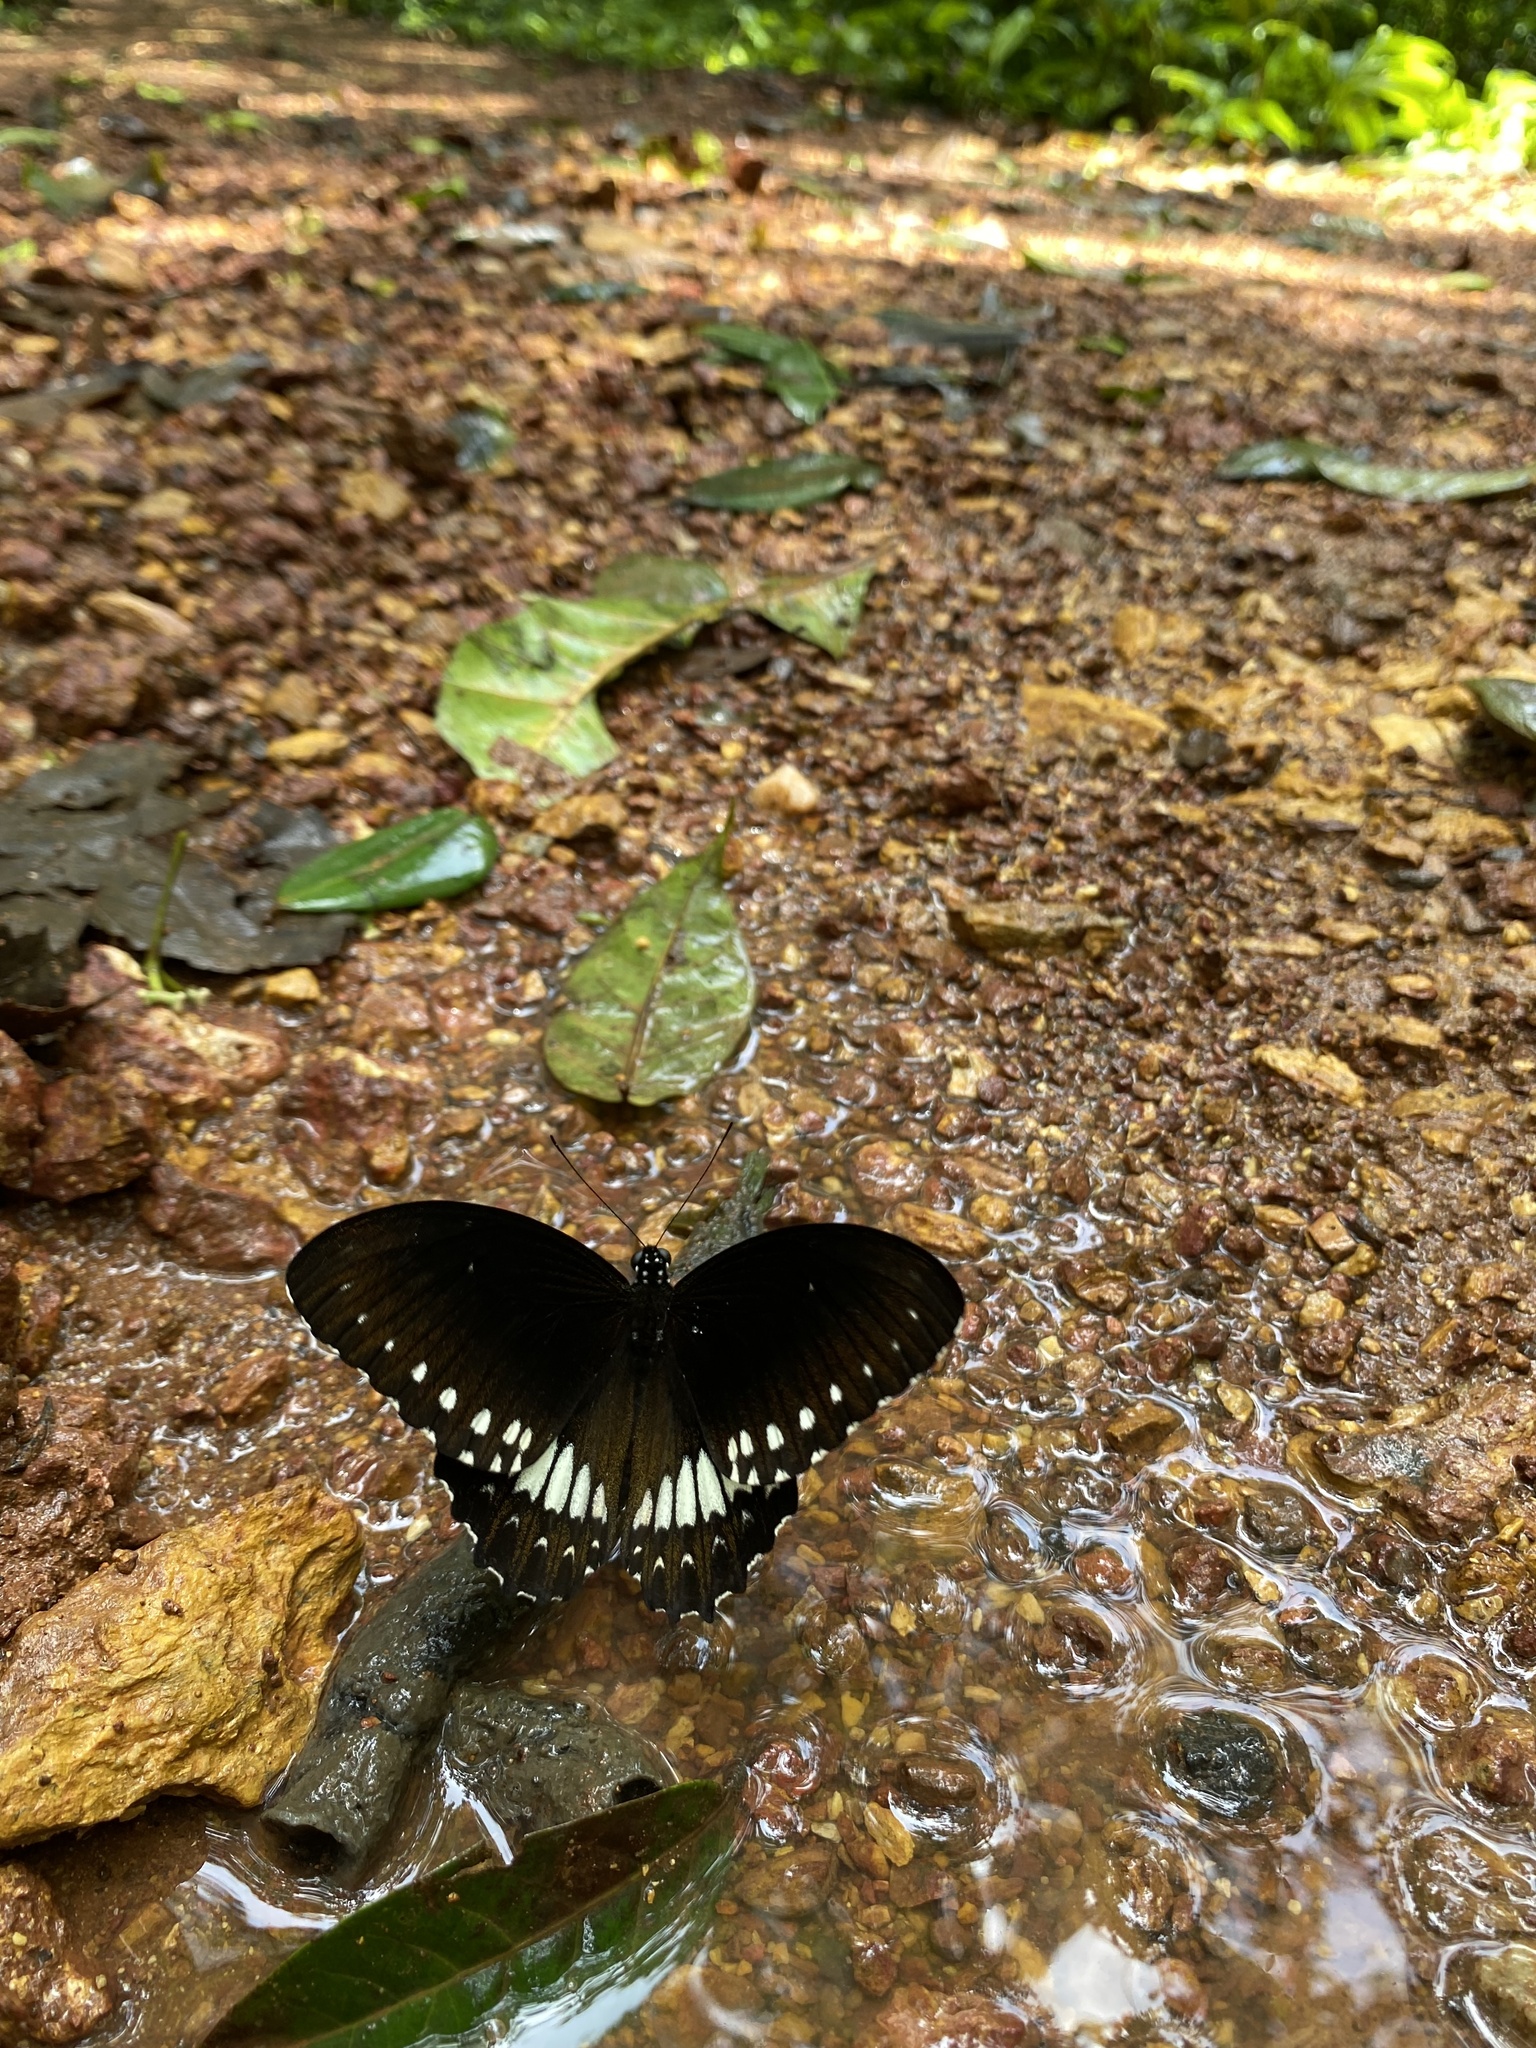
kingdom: Animalia
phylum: Arthropoda
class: Insecta
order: Lepidoptera
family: Papilionidae
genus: Papilio
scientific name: Papilio dravidarum
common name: Malabar raven
